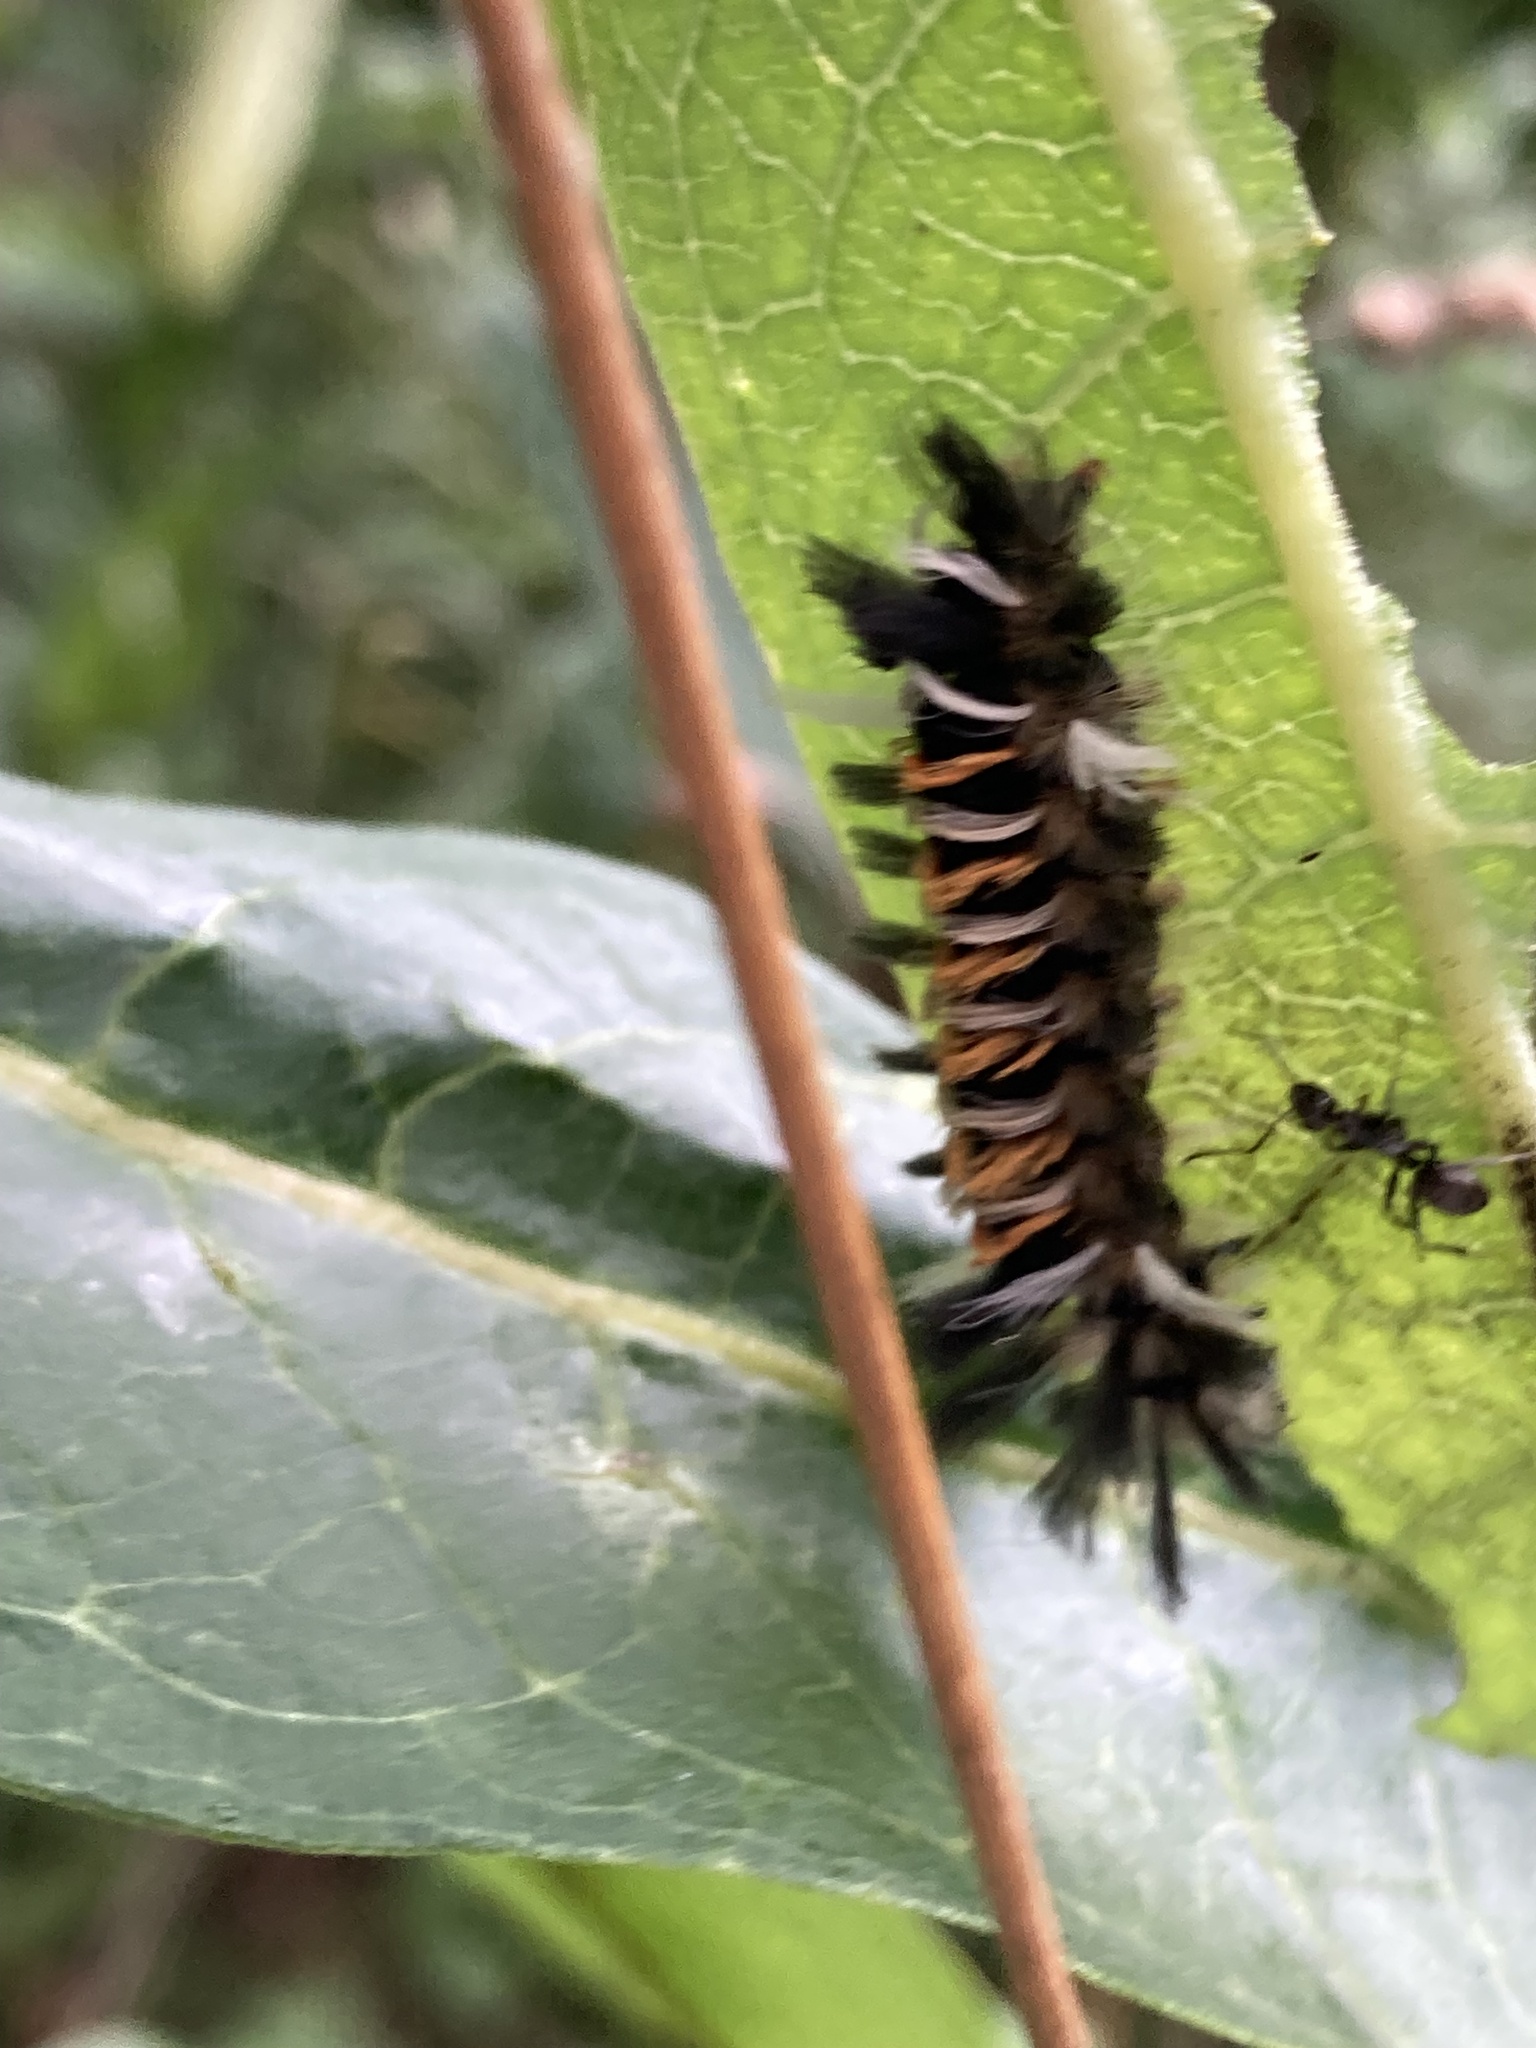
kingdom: Animalia
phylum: Arthropoda
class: Insecta
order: Lepidoptera
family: Erebidae
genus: Euchaetes
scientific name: Euchaetes egle
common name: Milkweed tussock moth
